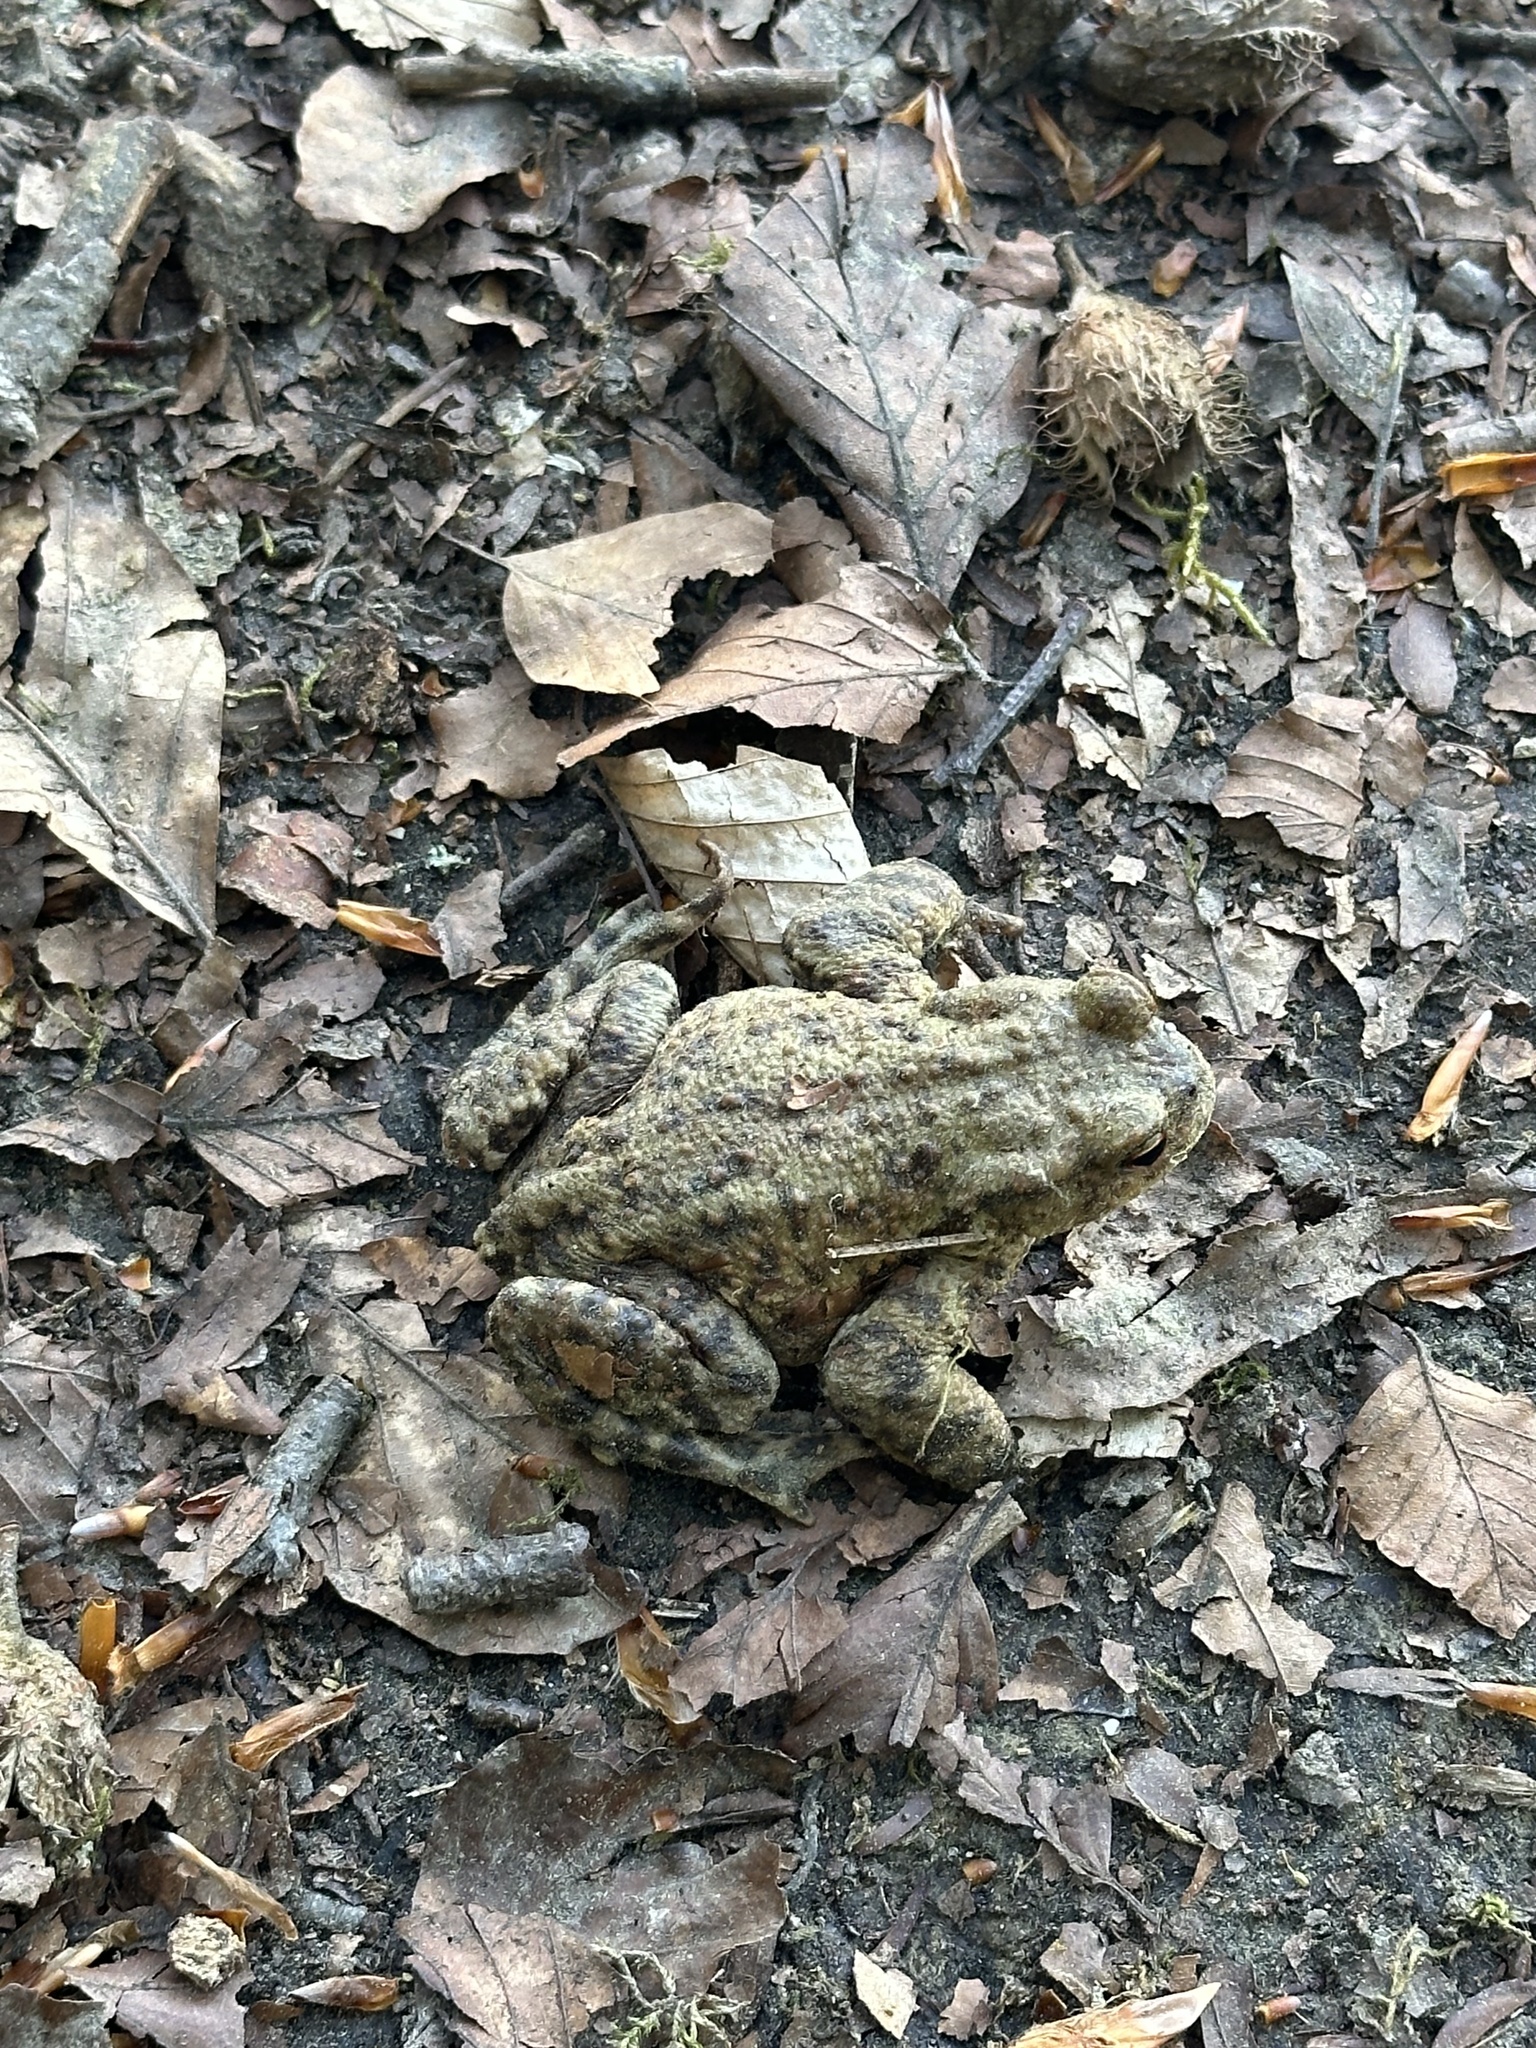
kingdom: Animalia
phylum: Chordata
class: Amphibia
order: Anura
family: Bufonidae
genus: Bufo
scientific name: Bufo bufo
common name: Common toad
